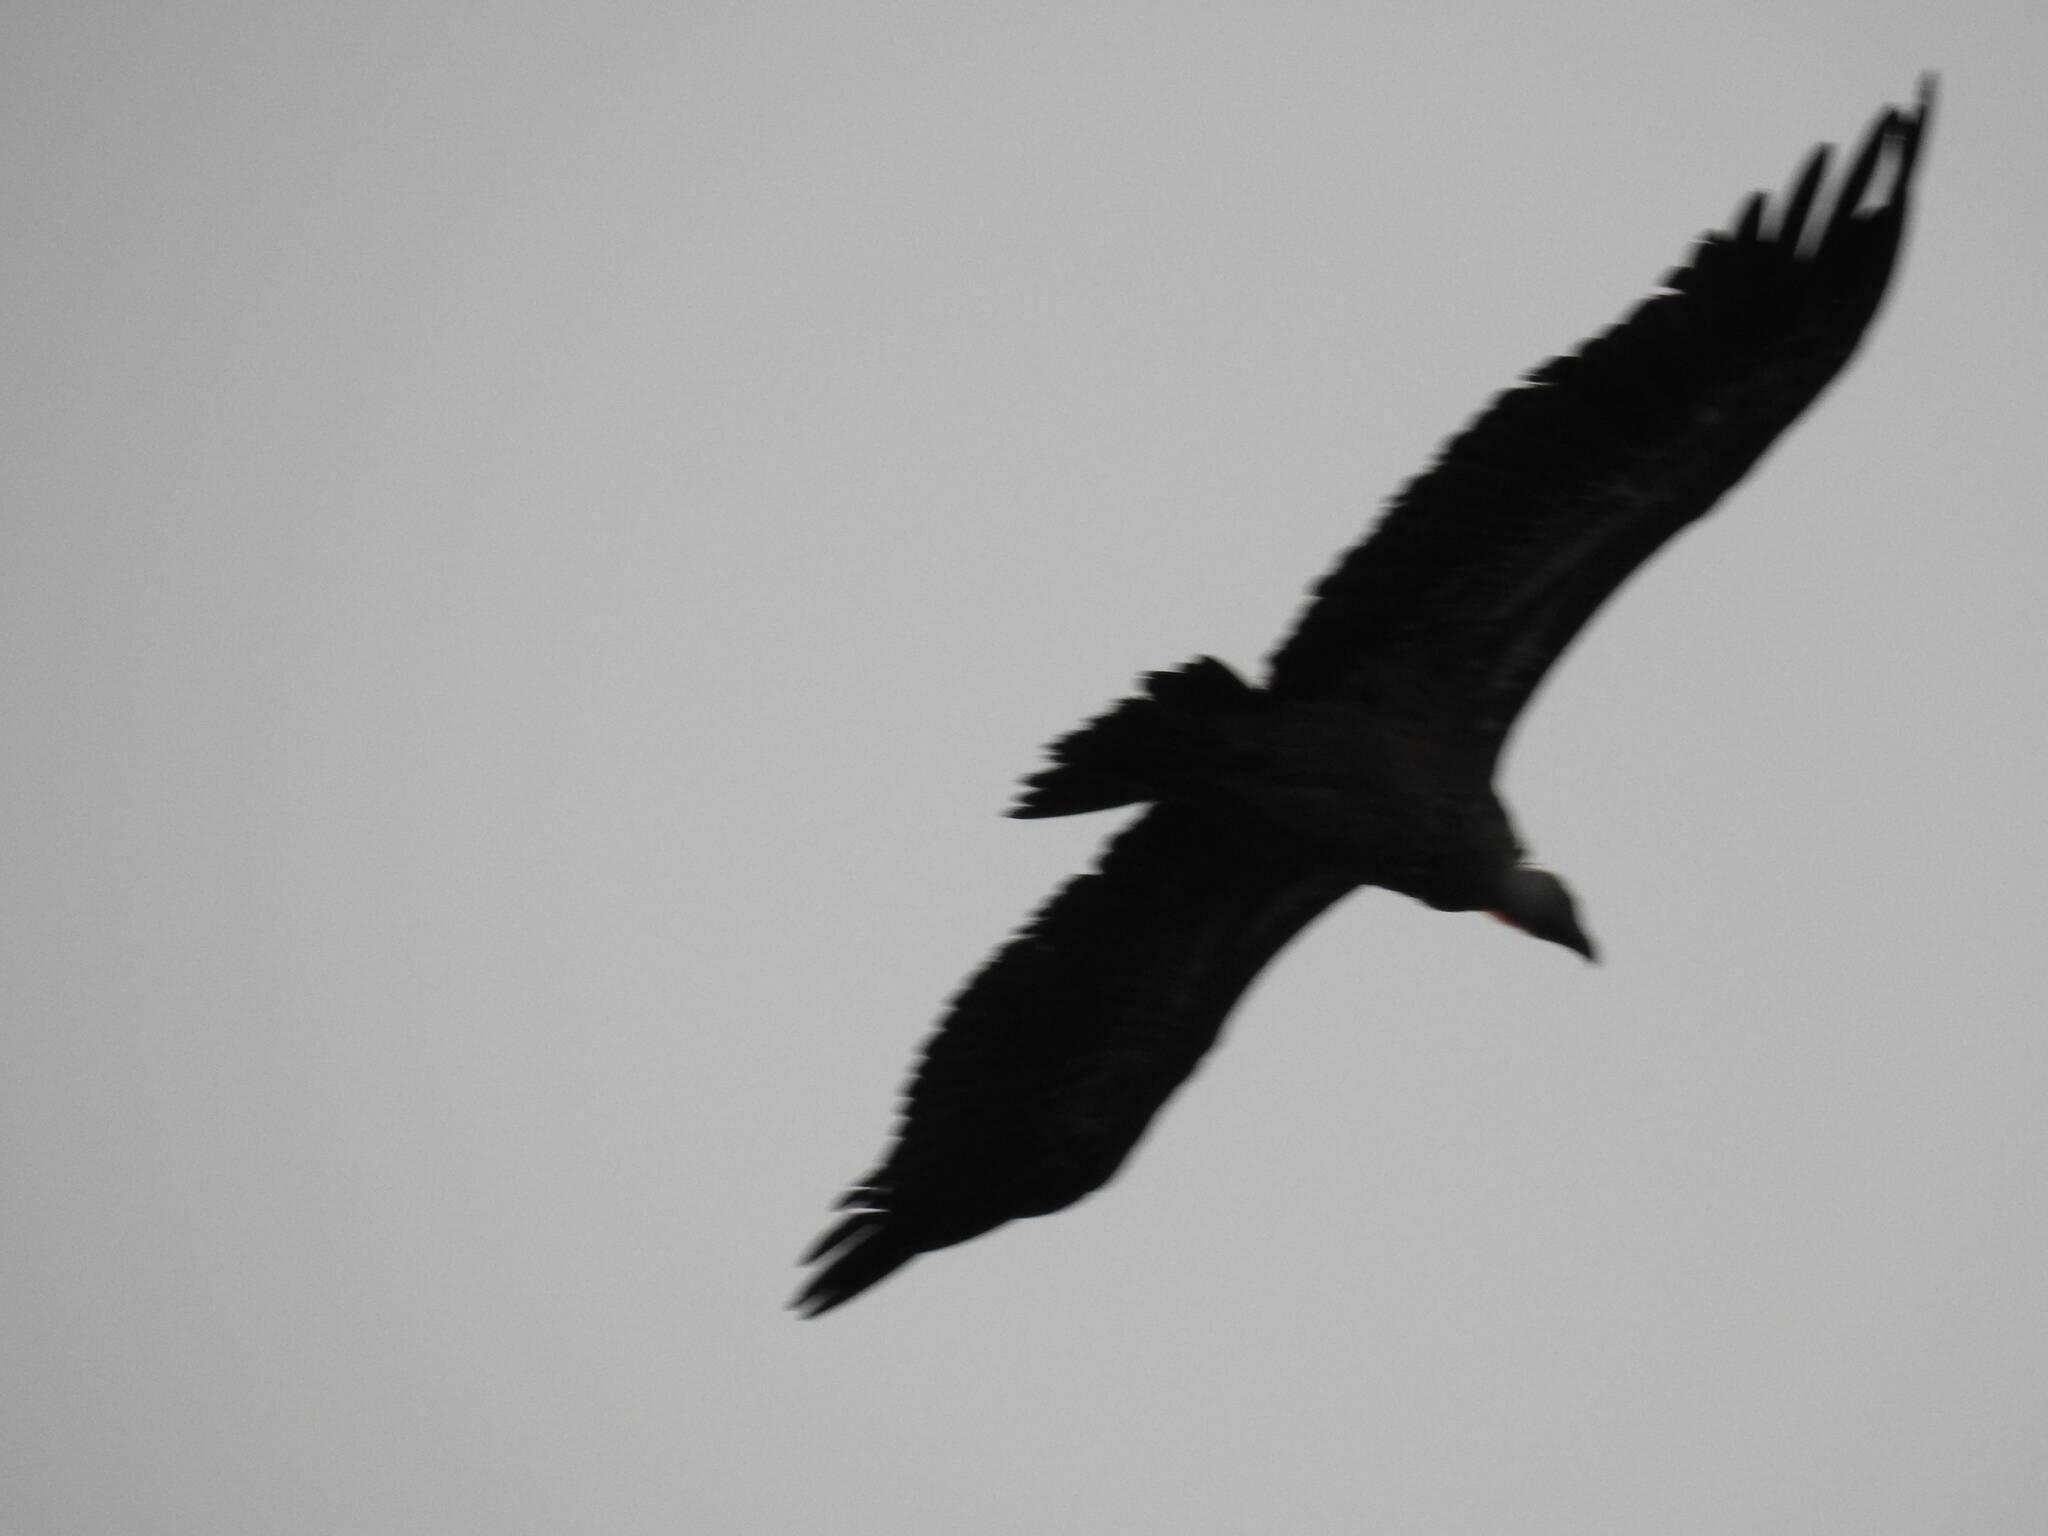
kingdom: Animalia
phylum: Chordata
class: Aves
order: Accipitriformes
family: Accipitridae
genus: Gyps
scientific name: Gyps fulvus
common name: Griffon vulture
